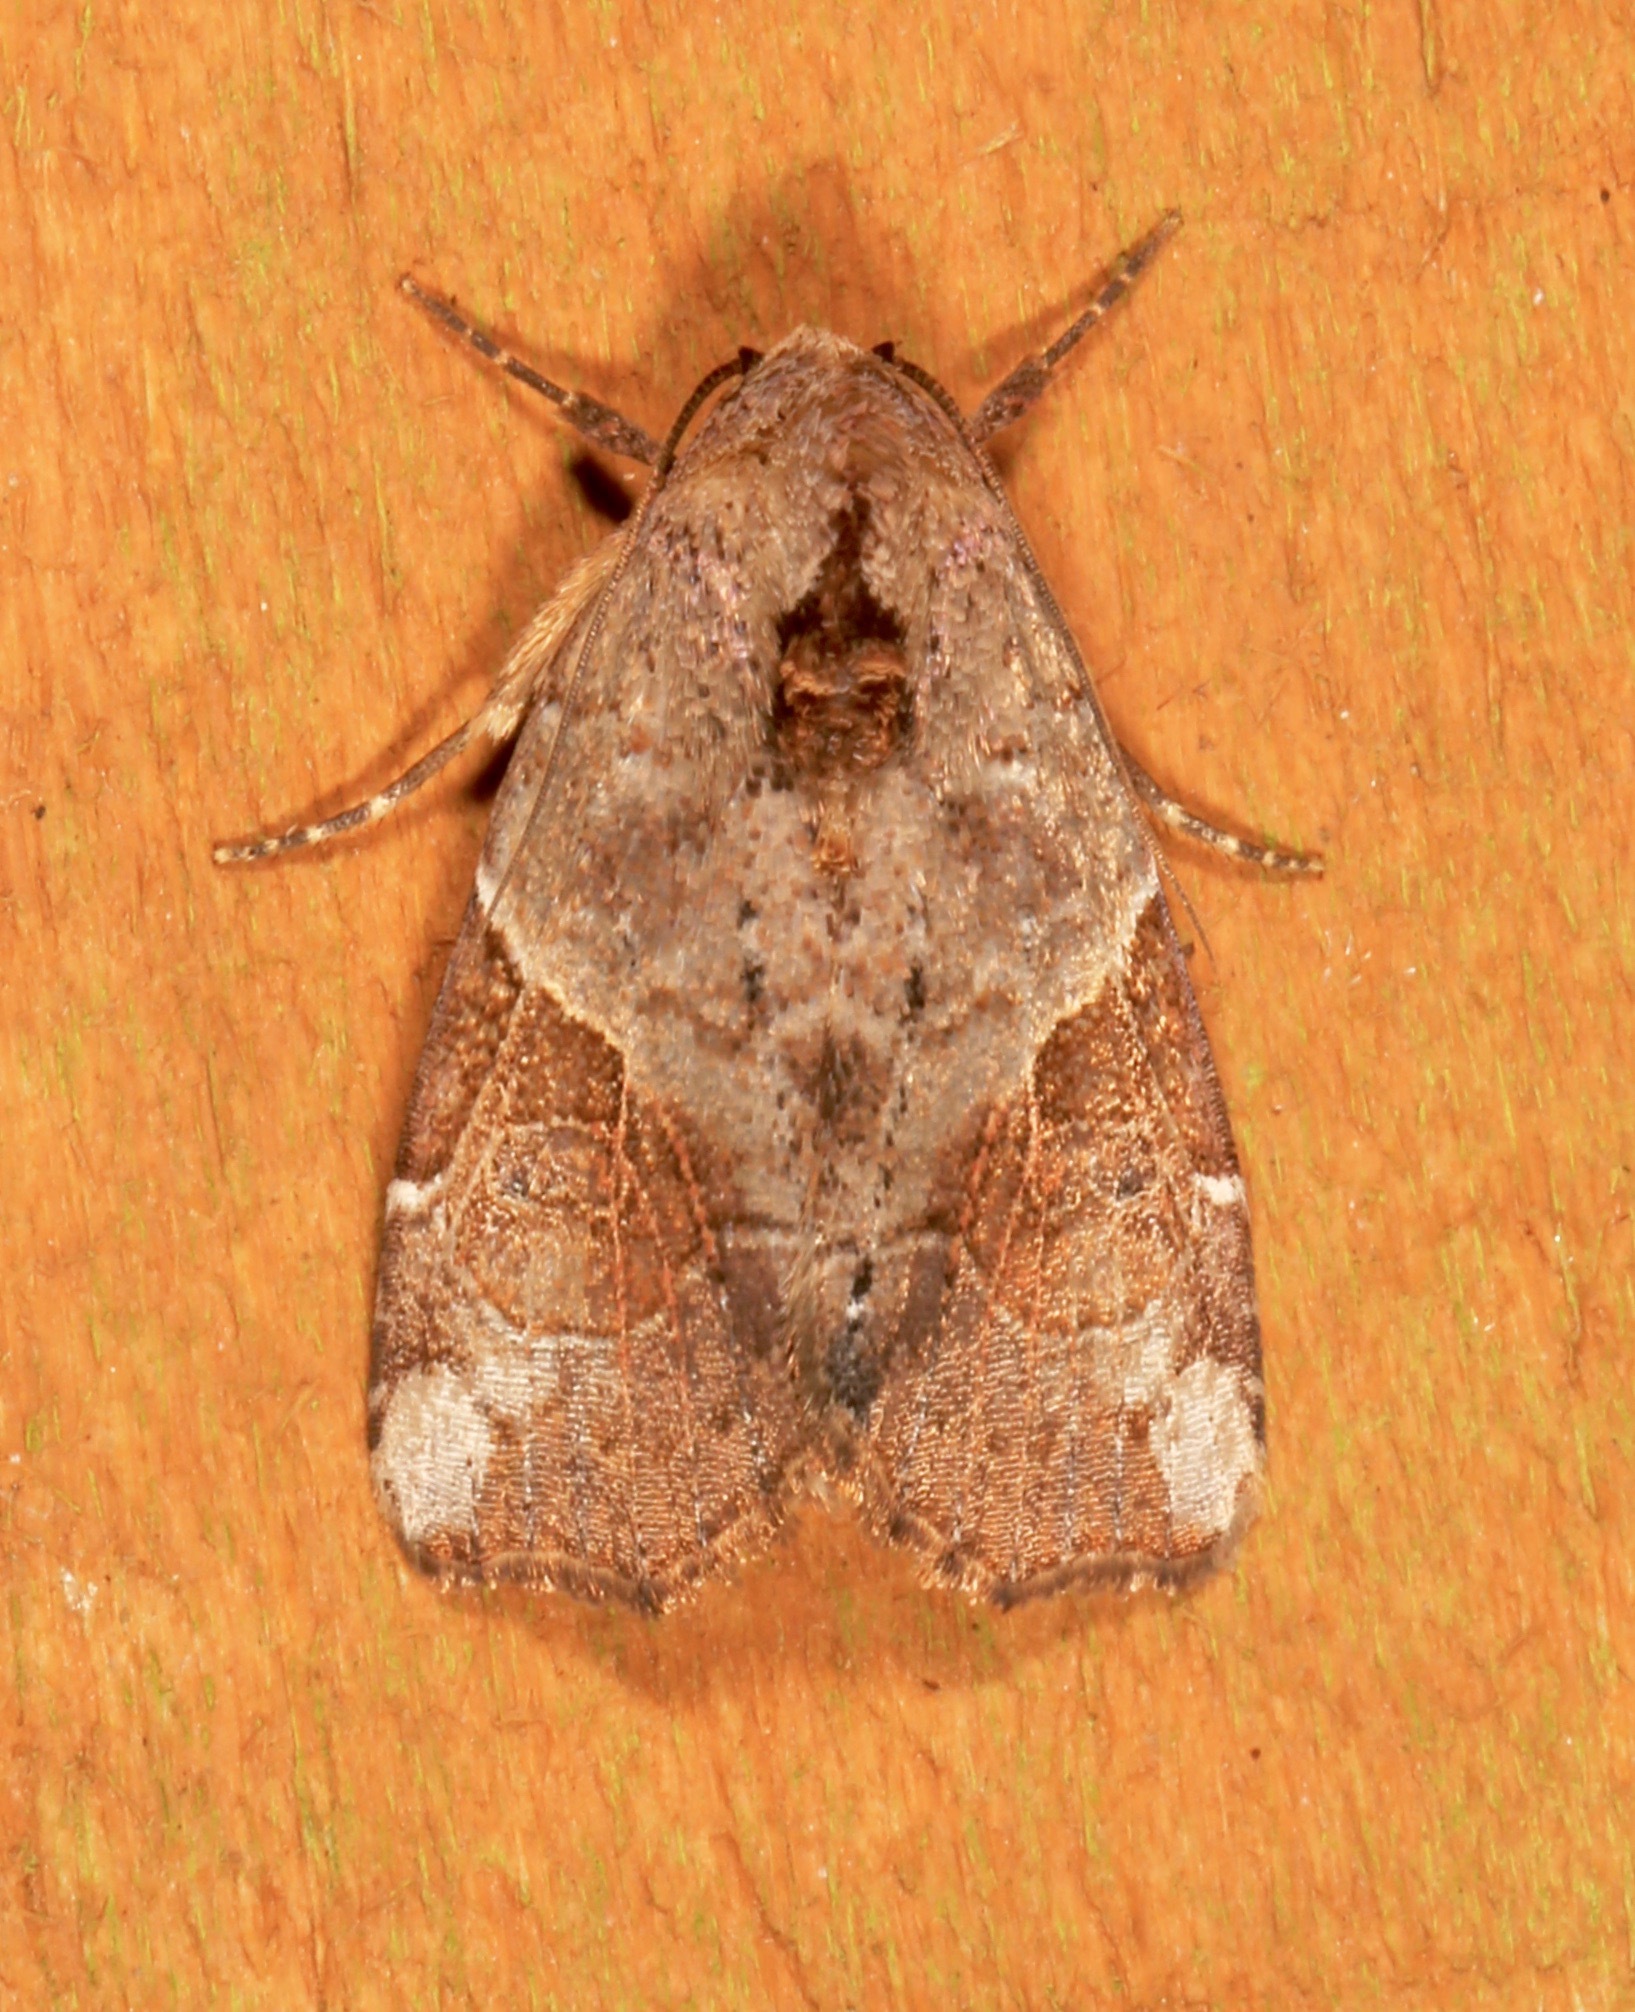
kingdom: Animalia
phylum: Arthropoda
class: Insecta
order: Lepidoptera
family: Noctuidae
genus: Gonodes
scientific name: Gonodes liquida
